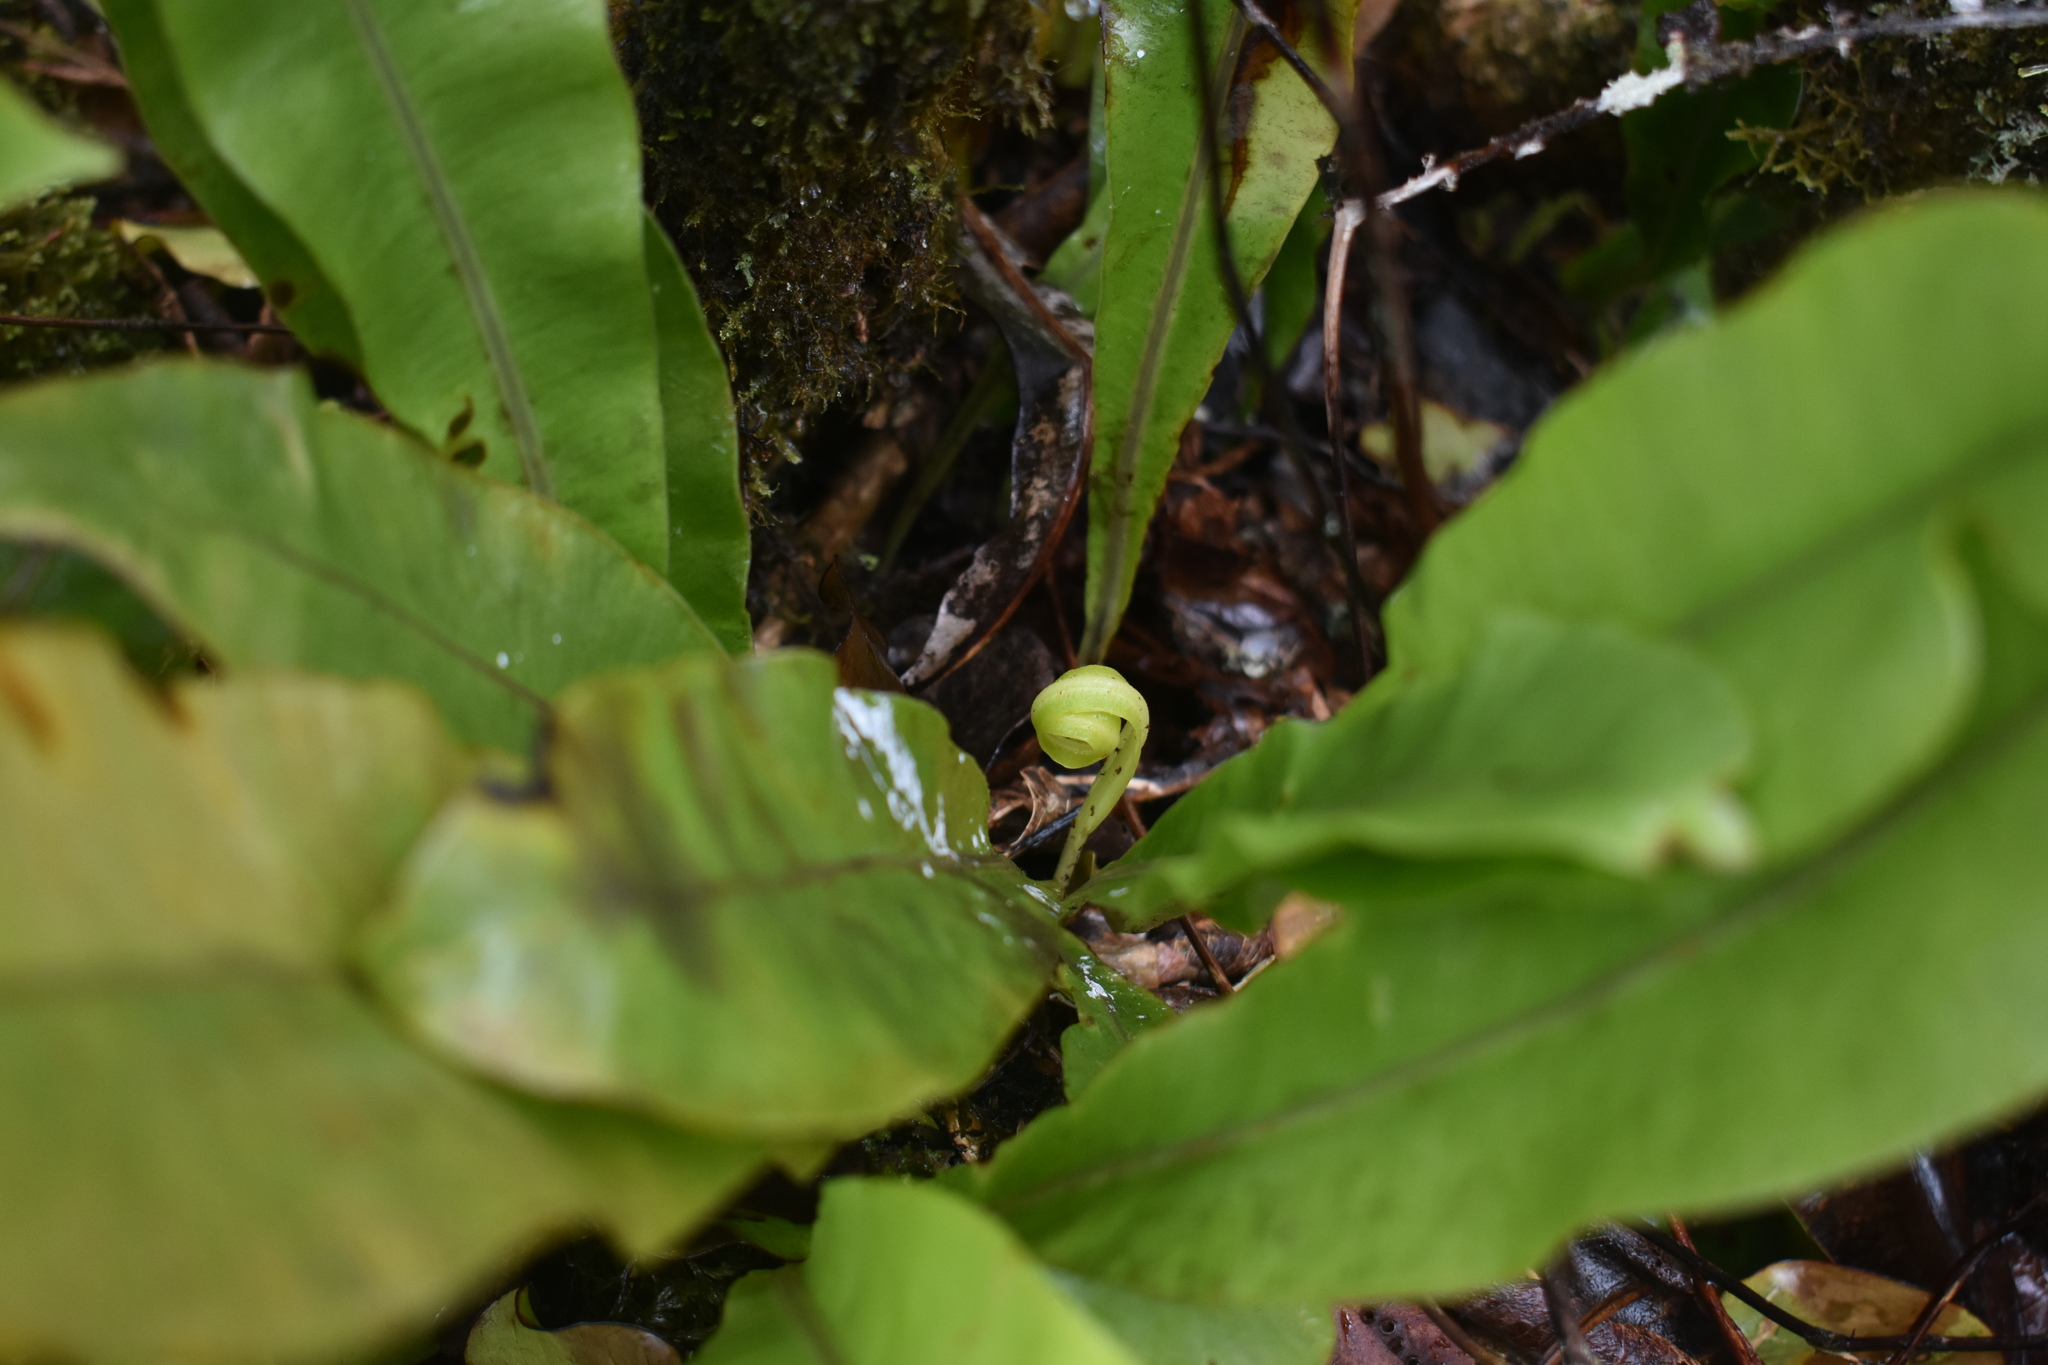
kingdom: Plantae
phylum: Tracheophyta
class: Polypodiopsida
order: Polypodiales
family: Aspleniaceae
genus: Asplenium
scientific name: Asplenium nidus
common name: Bird's-nest fern
